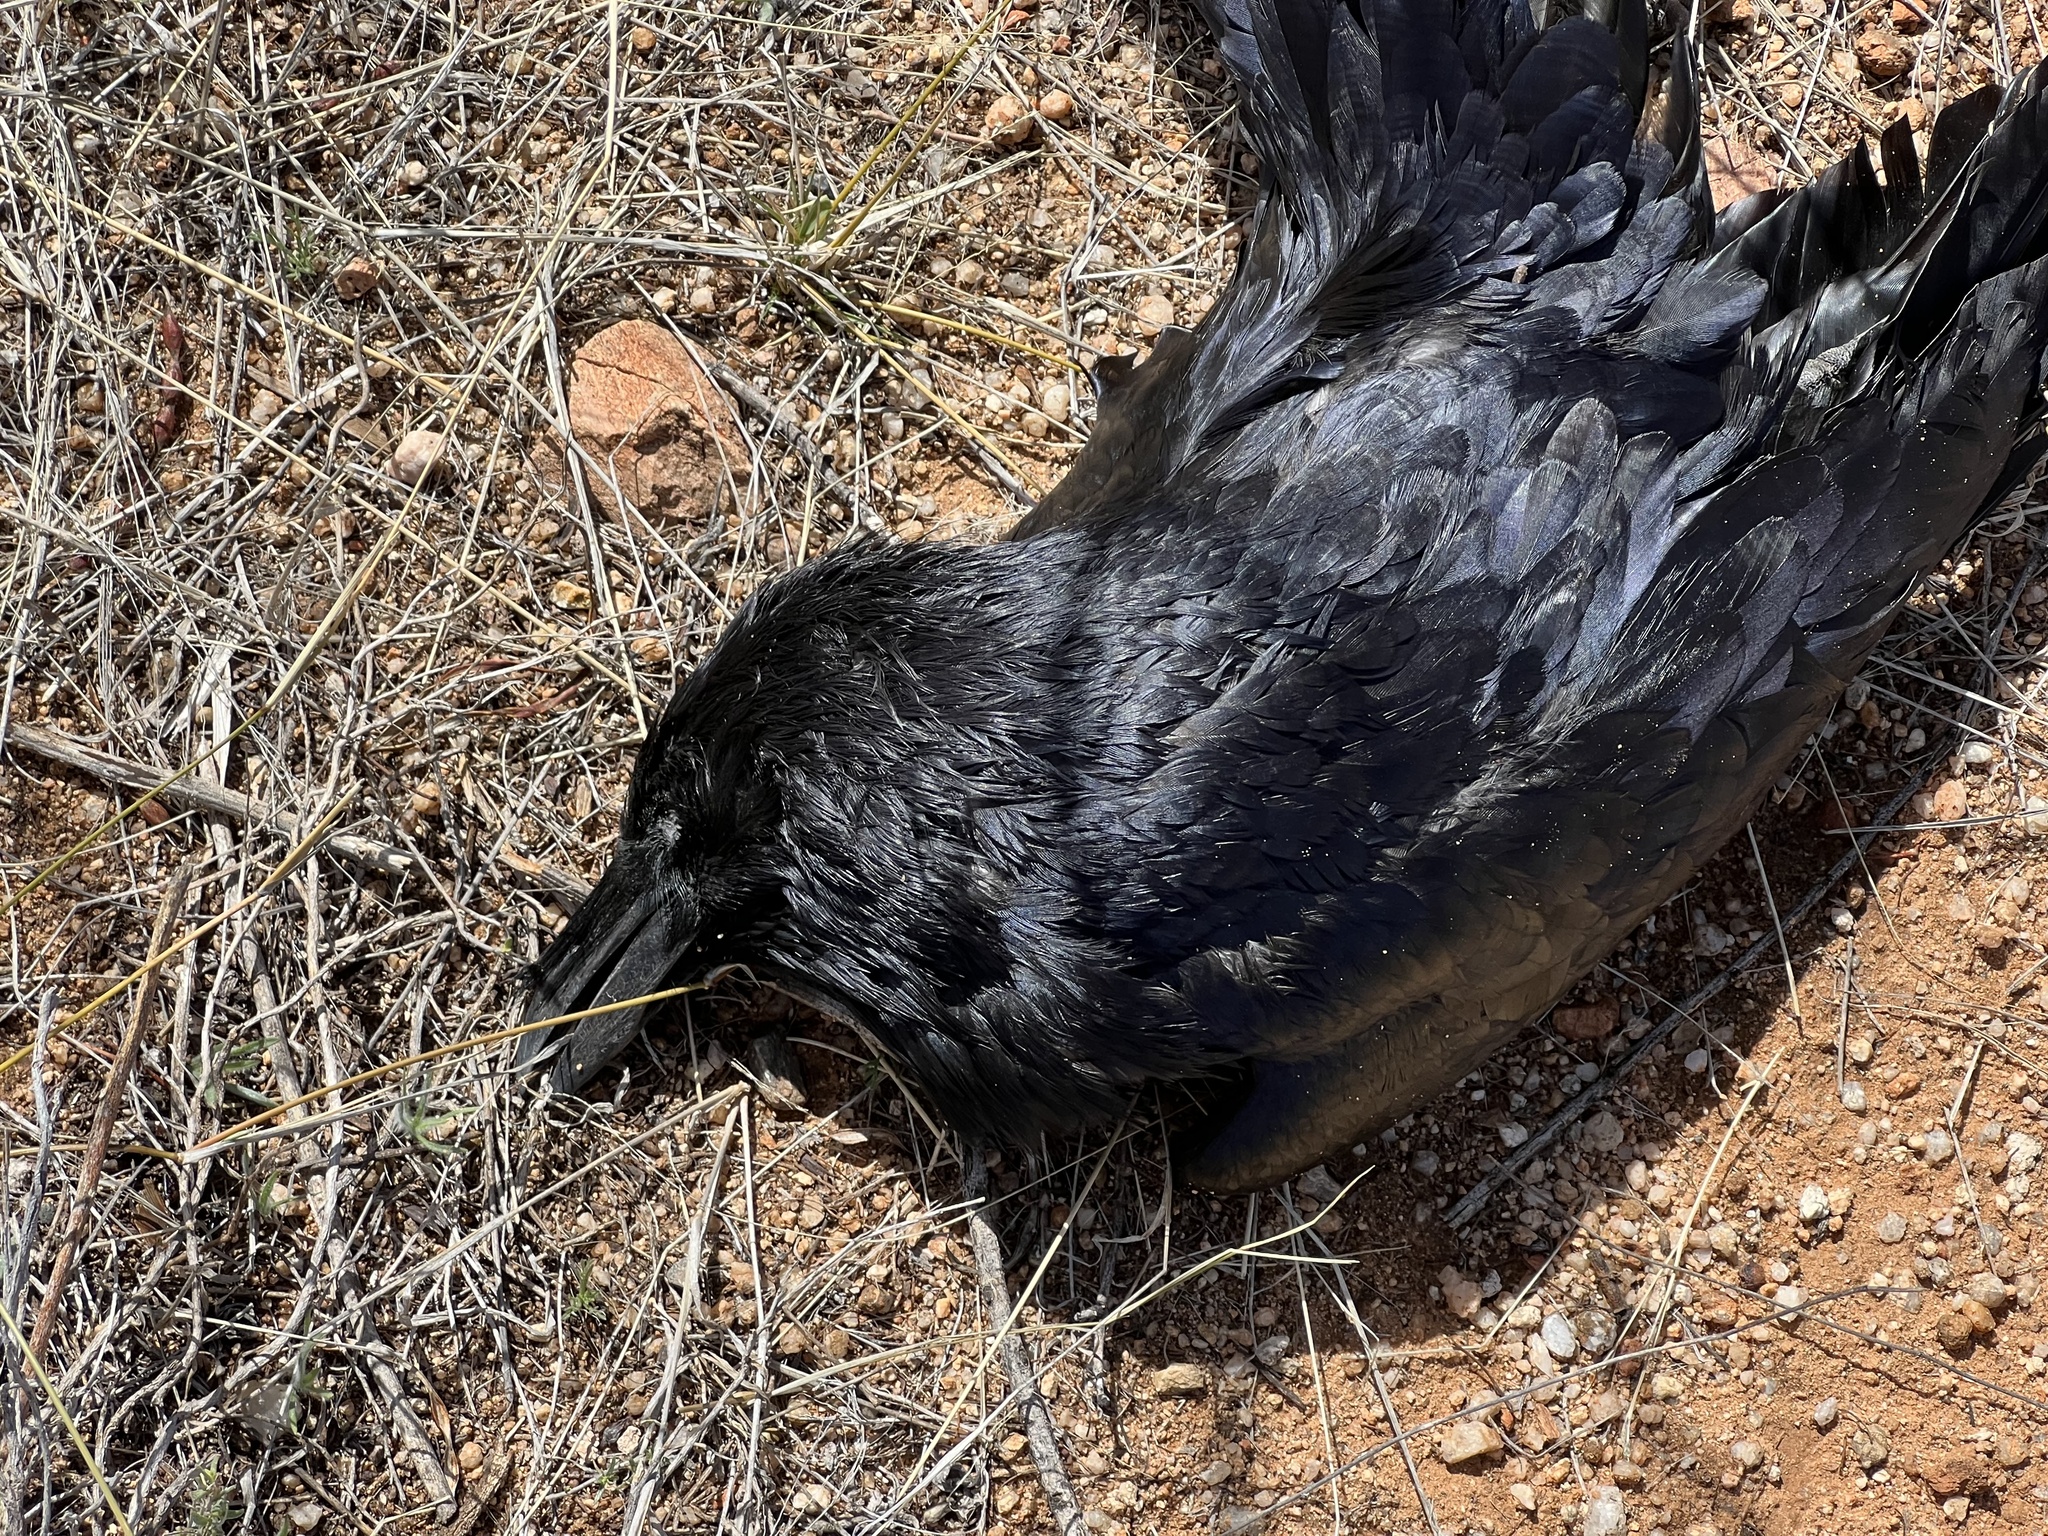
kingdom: Animalia
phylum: Chordata
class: Aves
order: Passeriformes
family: Corvidae
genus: Corvus
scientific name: Corvus corax
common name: Common raven
